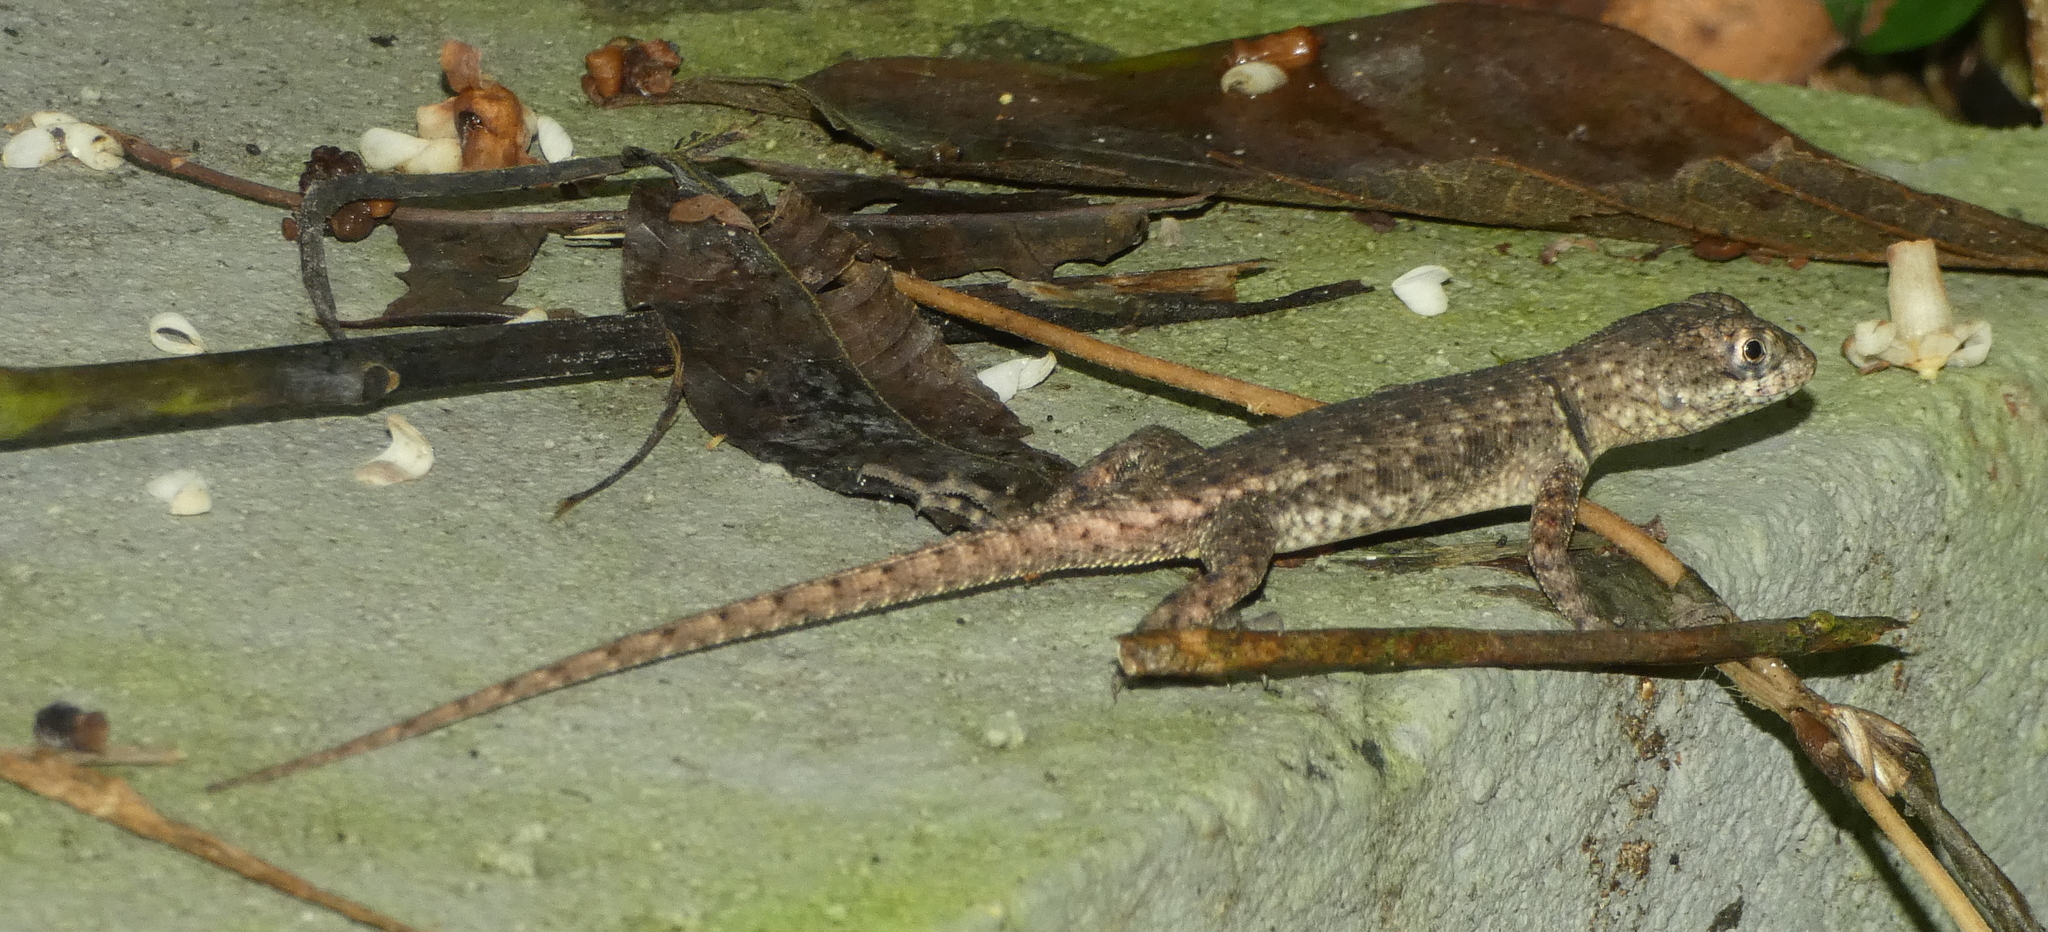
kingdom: Animalia
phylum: Chordata
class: Squamata
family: Tropiduridae
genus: Tropidurus
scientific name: Tropidurus hispidus
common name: Peters' lava lizard
